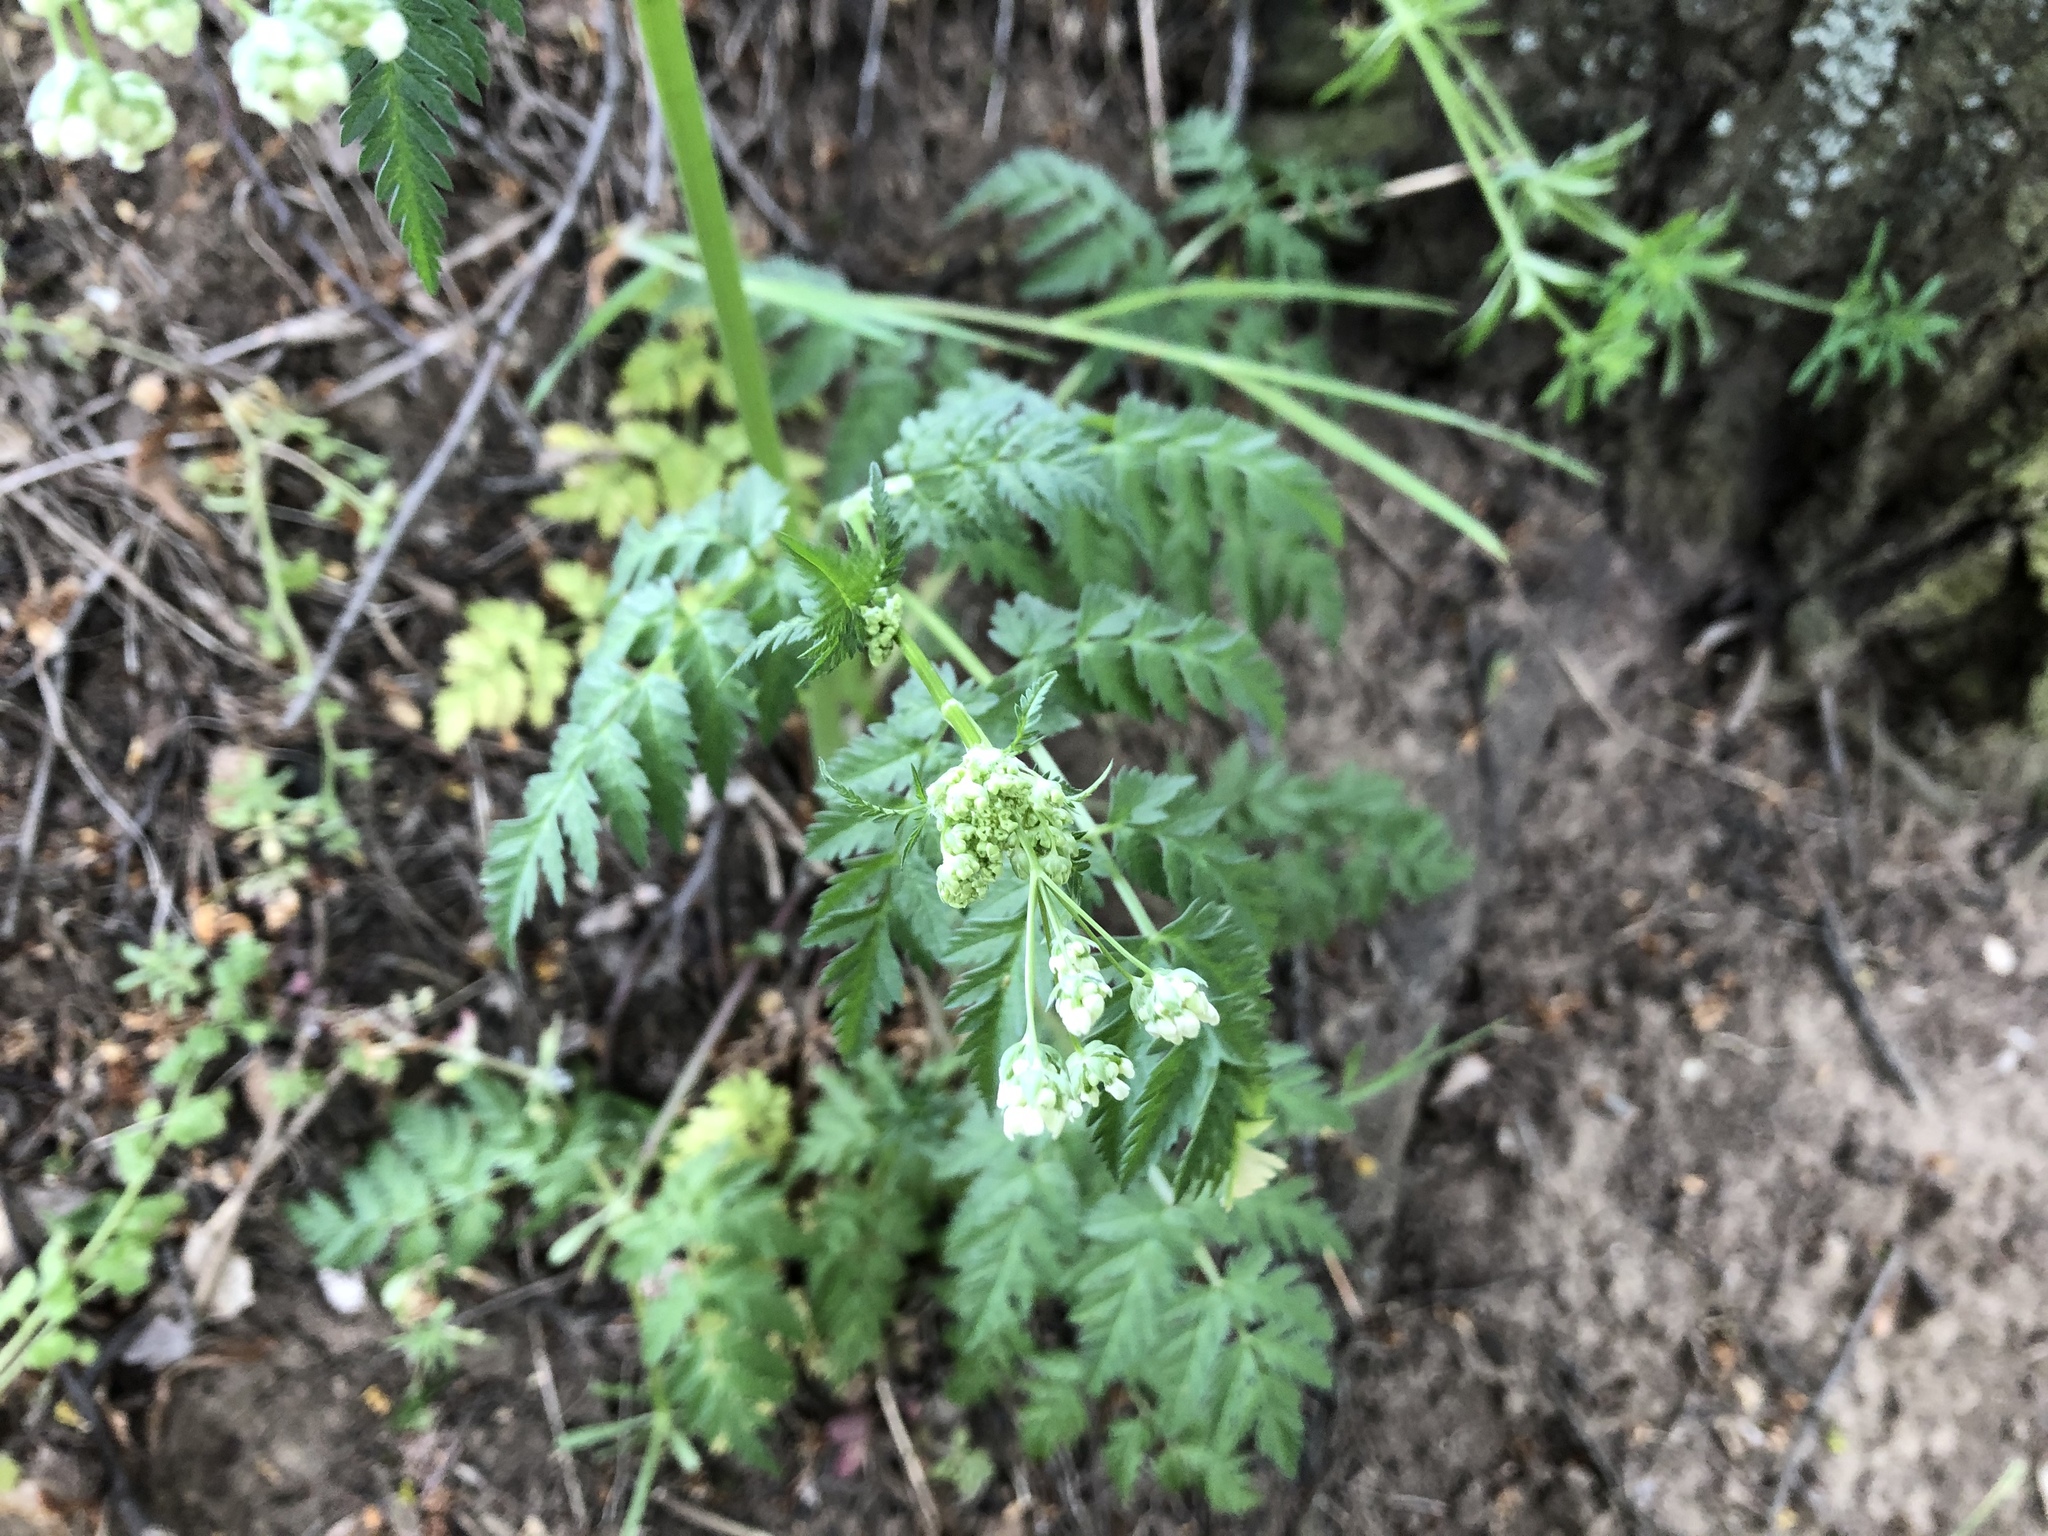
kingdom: Plantae
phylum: Tracheophyta
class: Magnoliopsida
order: Apiales
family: Apiaceae
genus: Anthriscus
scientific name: Anthriscus sylvestris
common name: Cow parsley
